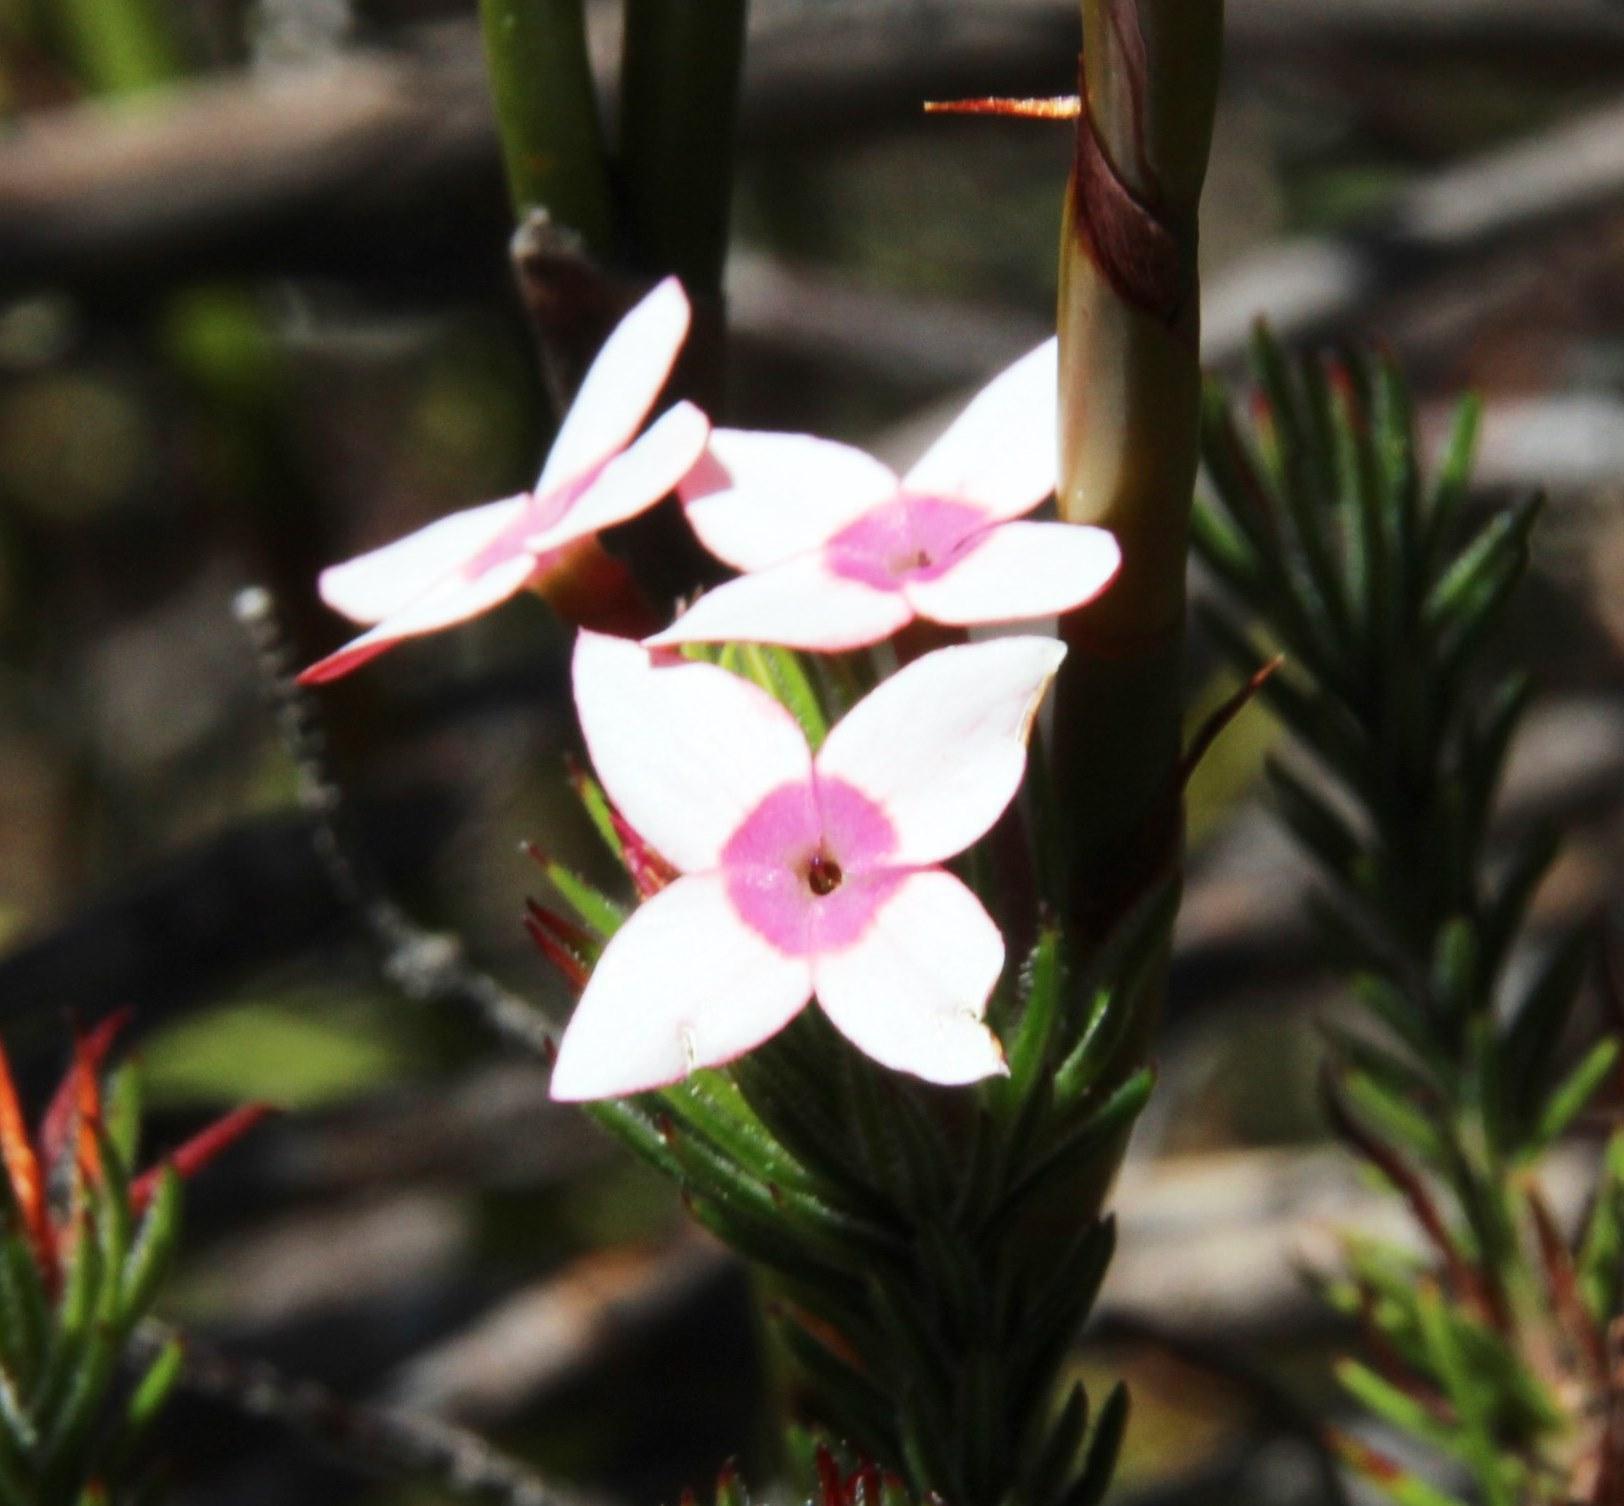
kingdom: Plantae
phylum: Tracheophyta
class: Magnoliopsida
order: Ericales
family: Ericaceae
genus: Erica
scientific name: Erica fastigiata
